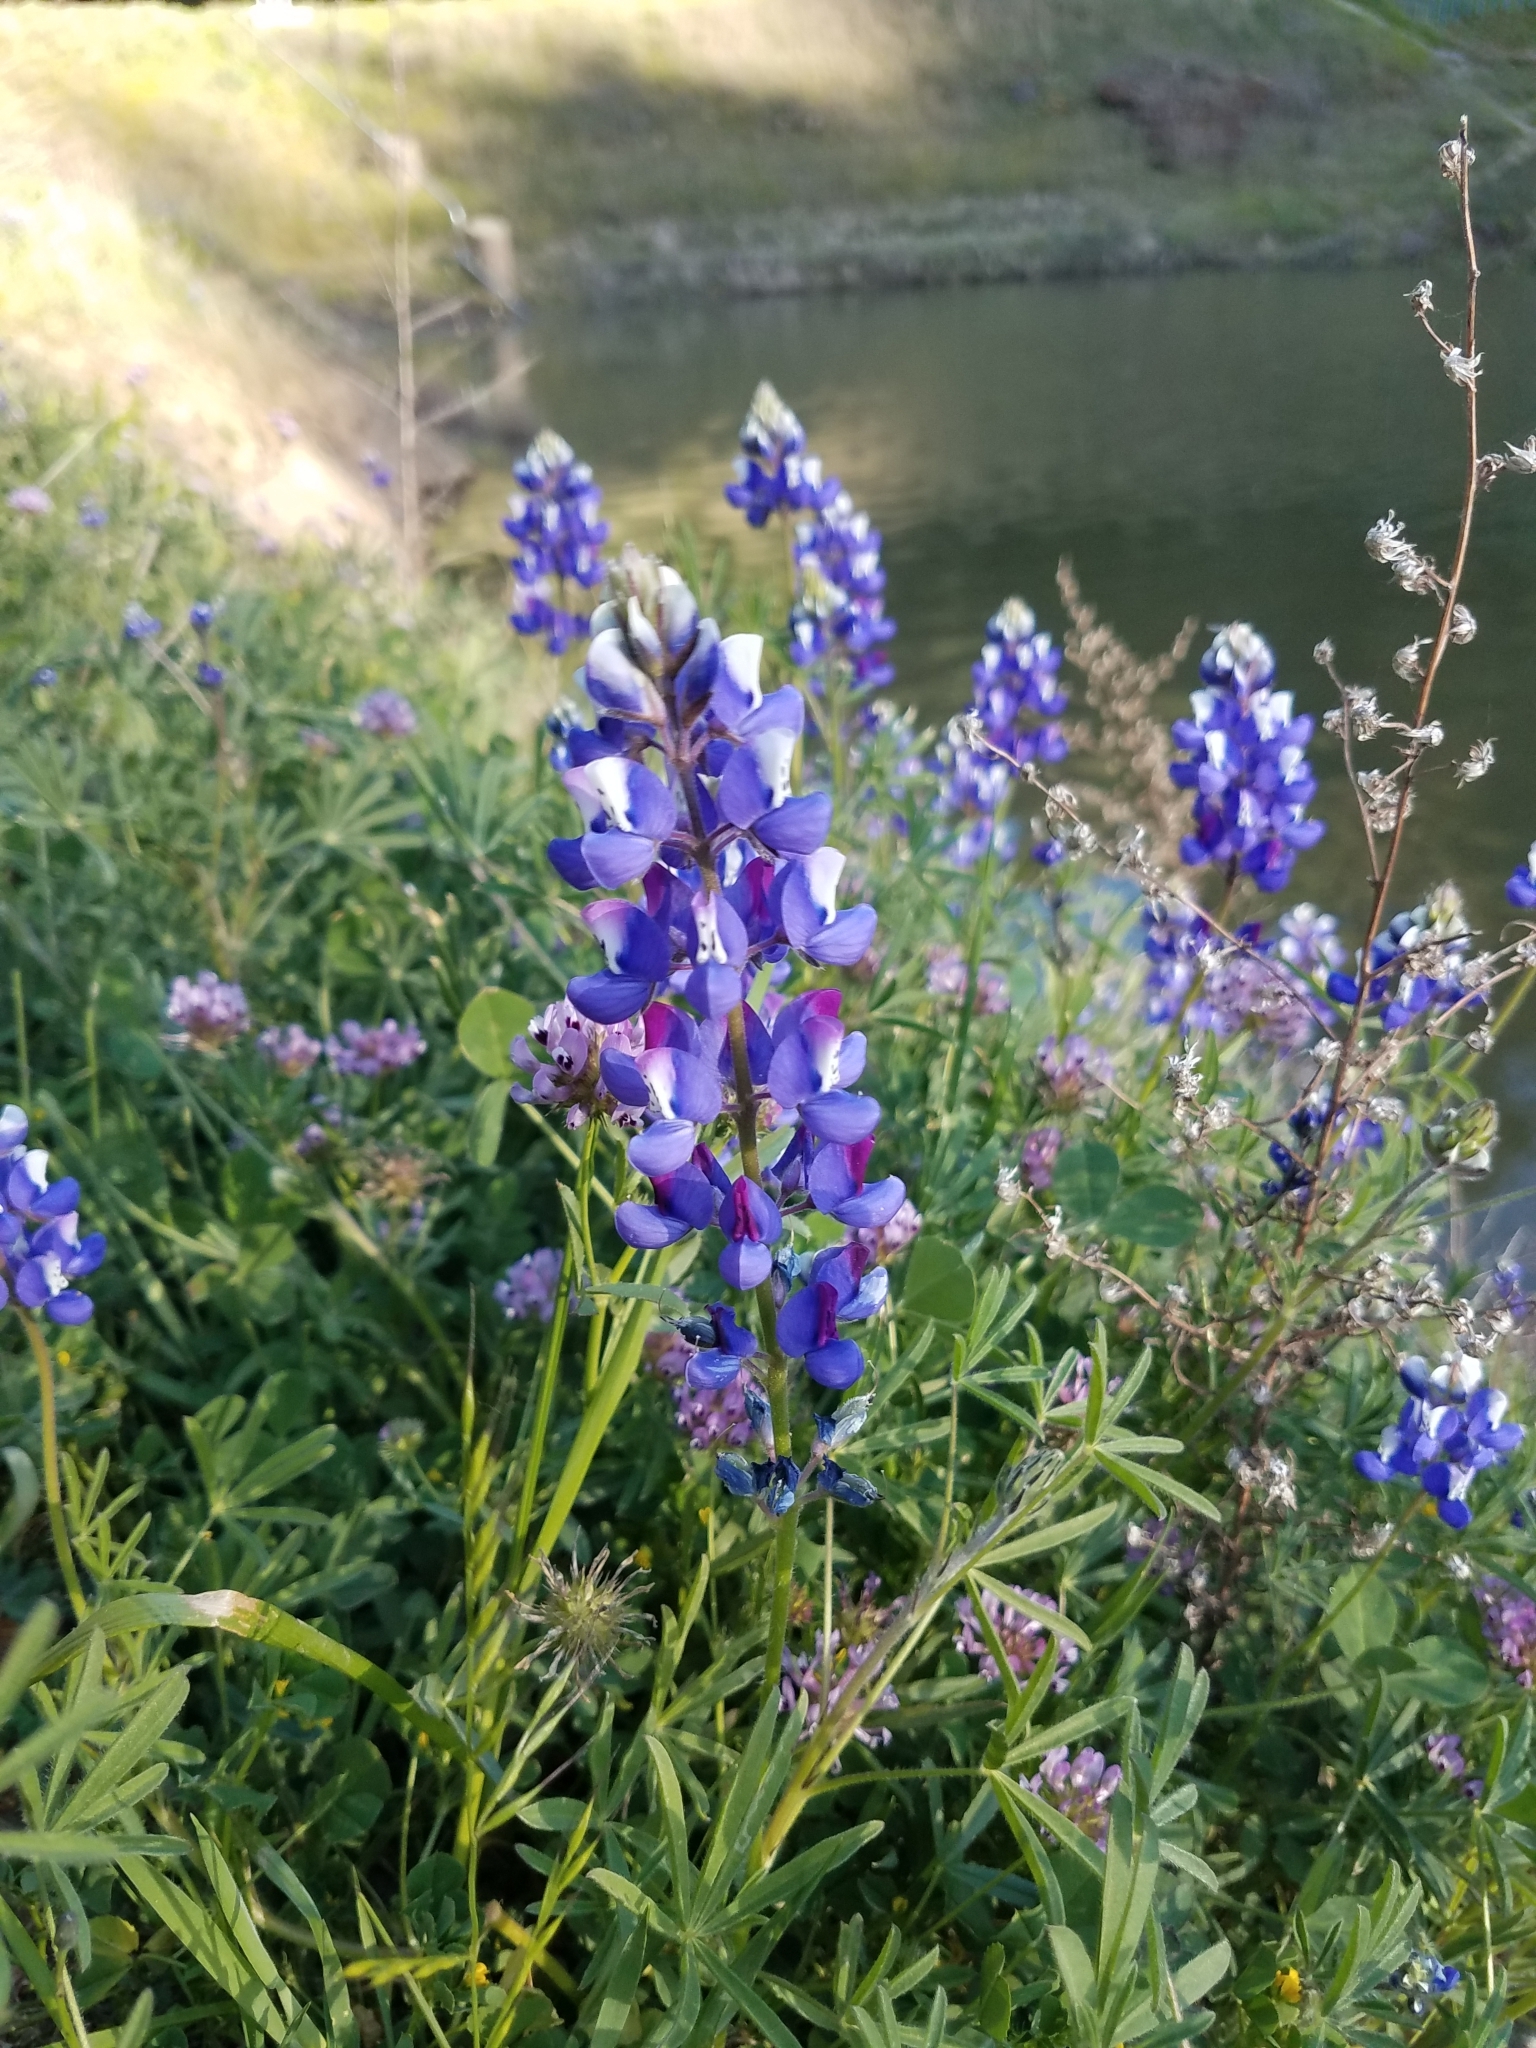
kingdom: Plantae
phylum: Tracheophyta
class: Magnoliopsida
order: Fabales
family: Fabaceae
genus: Lupinus
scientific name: Lupinus nanus
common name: Orean blue lupin
